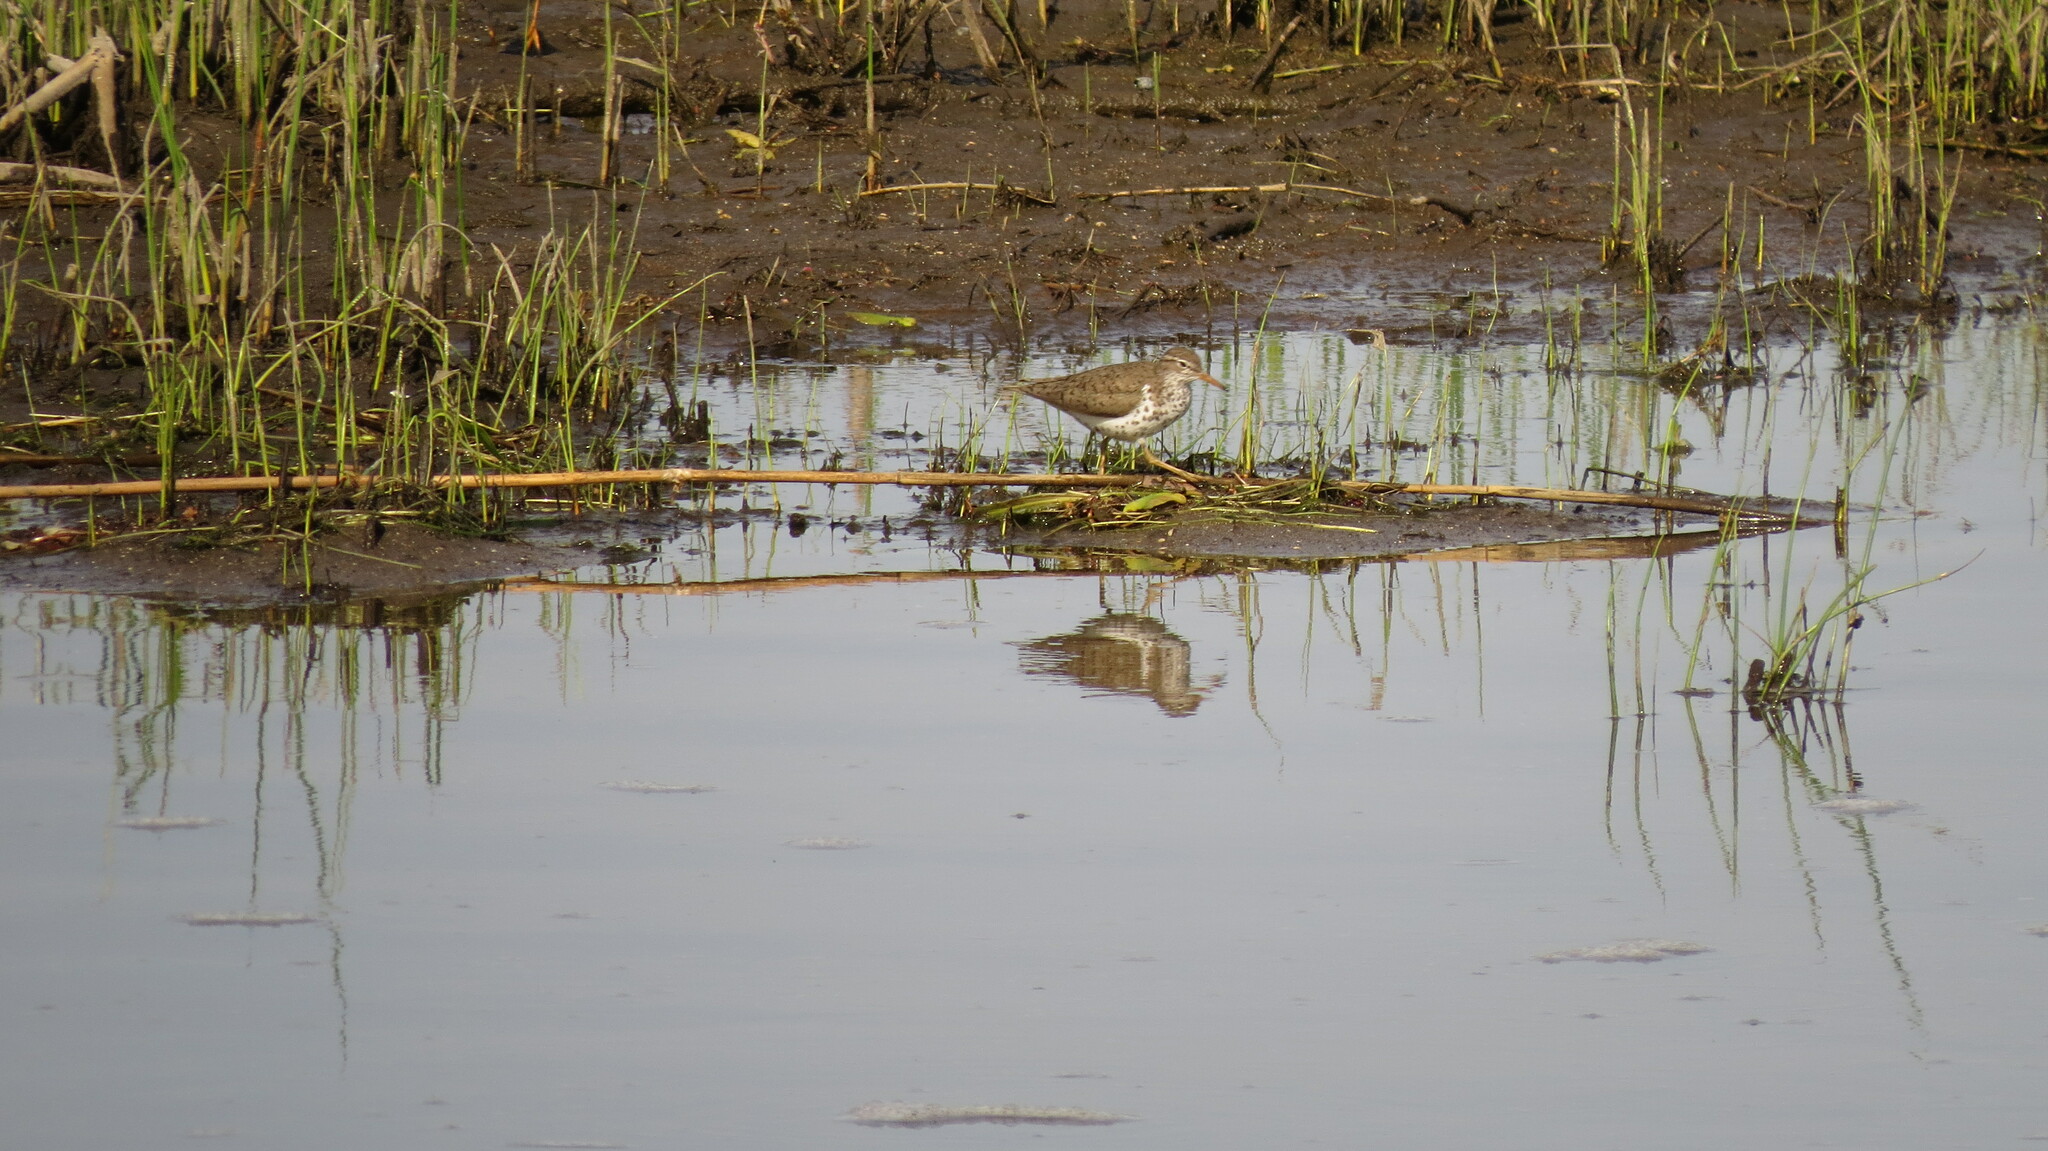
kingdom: Animalia
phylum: Chordata
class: Aves
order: Charadriiformes
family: Scolopacidae
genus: Actitis
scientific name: Actitis macularius
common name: Spotted sandpiper
